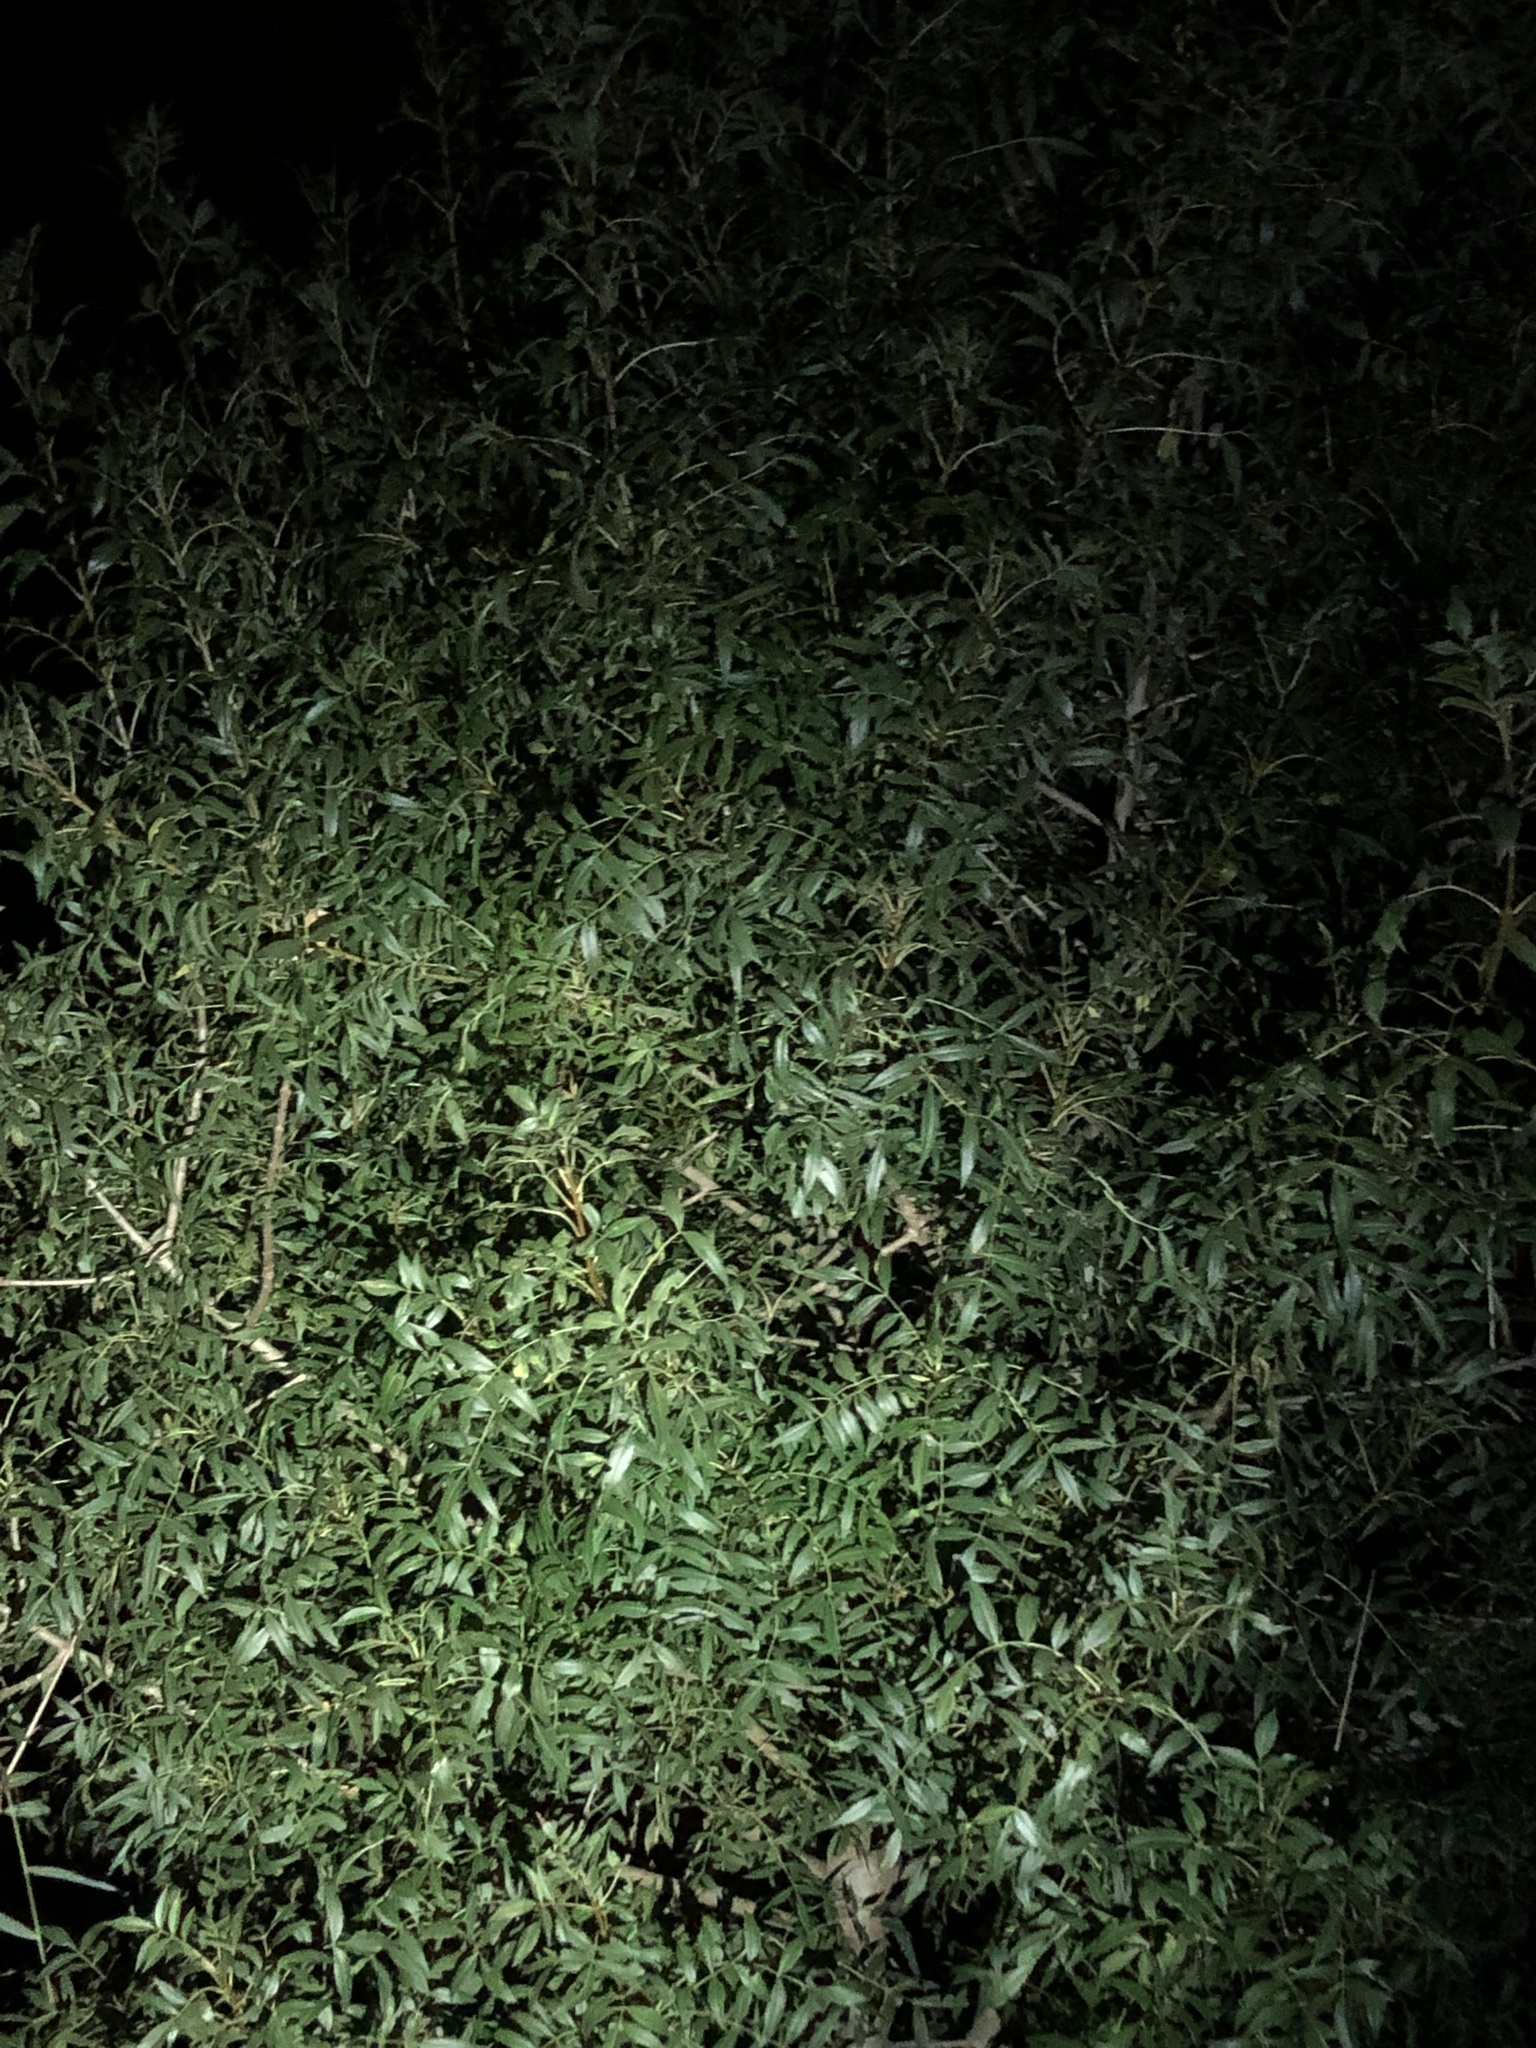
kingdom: Plantae
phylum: Tracheophyta
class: Magnoliopsida
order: Lamiales
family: Oleaceae
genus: Fraxinus
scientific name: Fraxinus angustifolia
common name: Narrow-leafed ash
